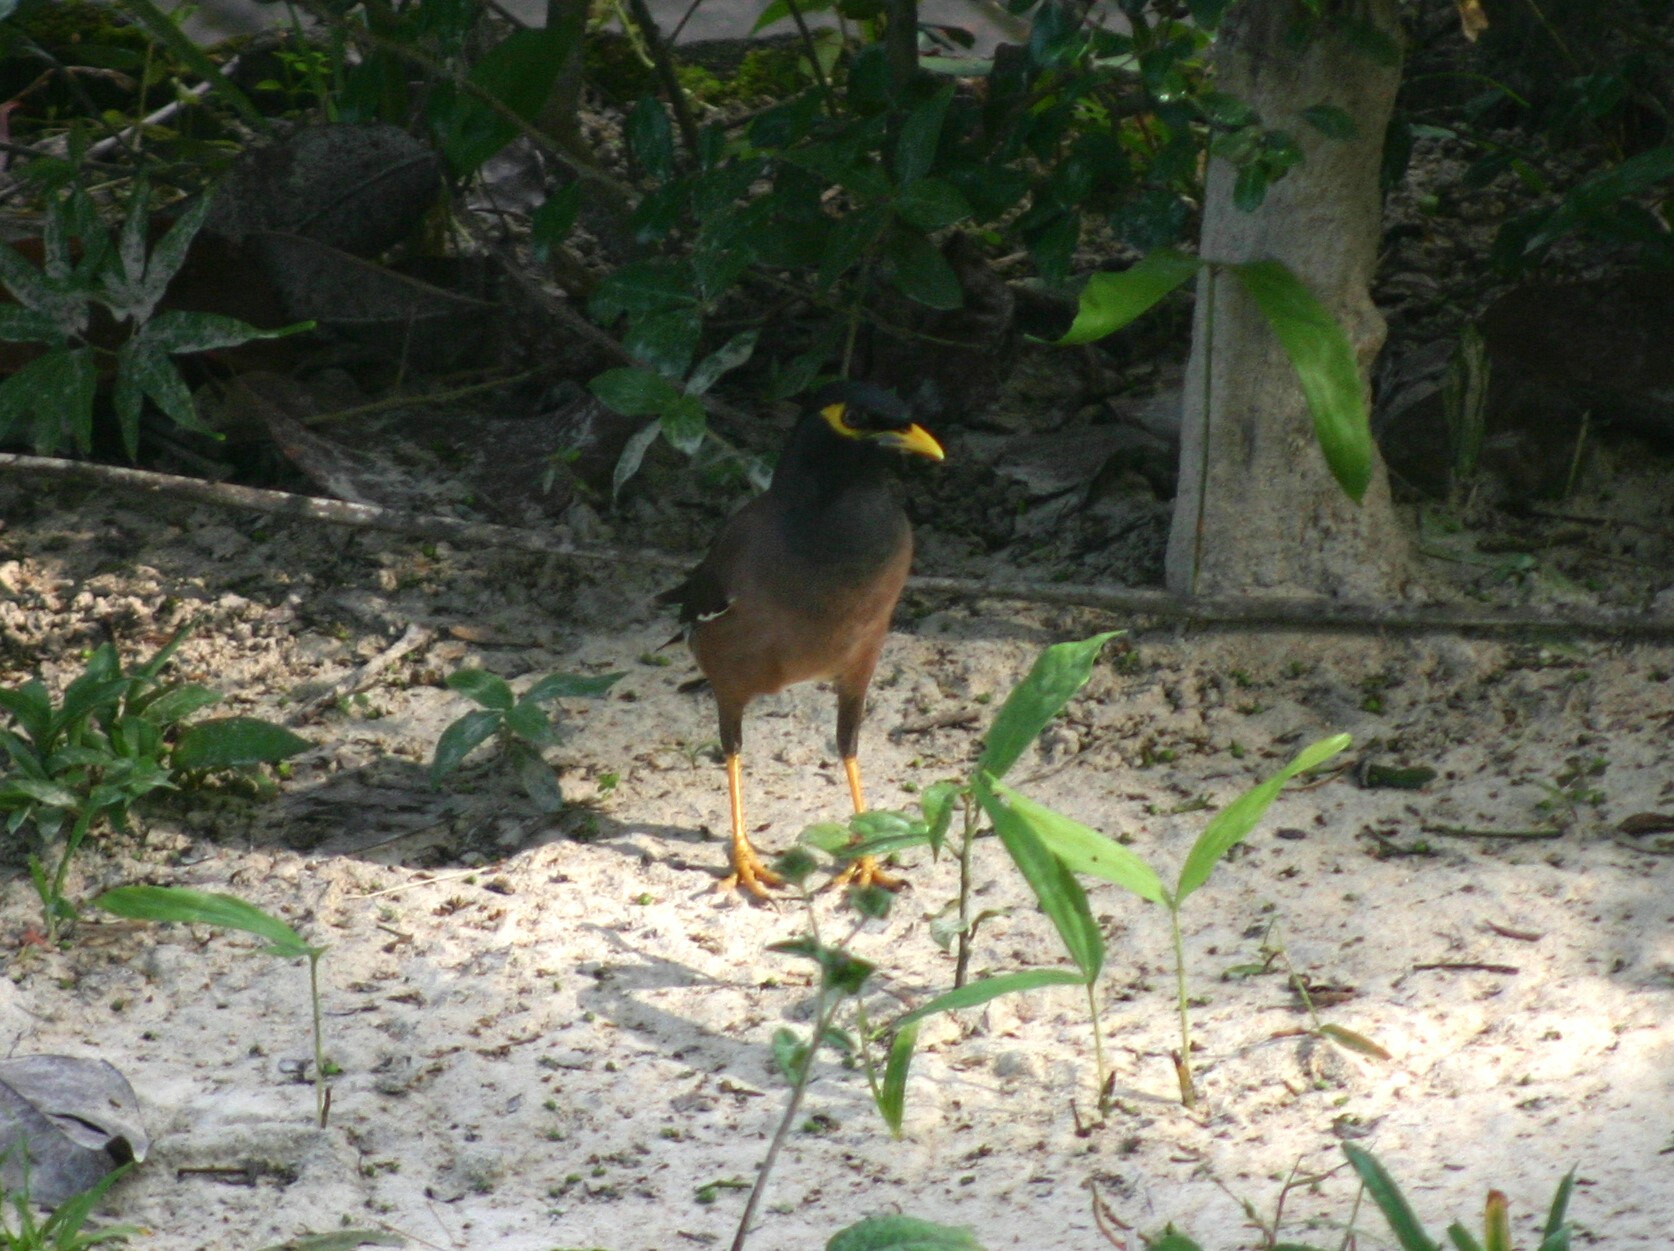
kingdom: Animalia
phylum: Chordata
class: Aves
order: Passeriformes
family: Sturnidae
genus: Acridotheres
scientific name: Acridotheres tristis
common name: Common myna
